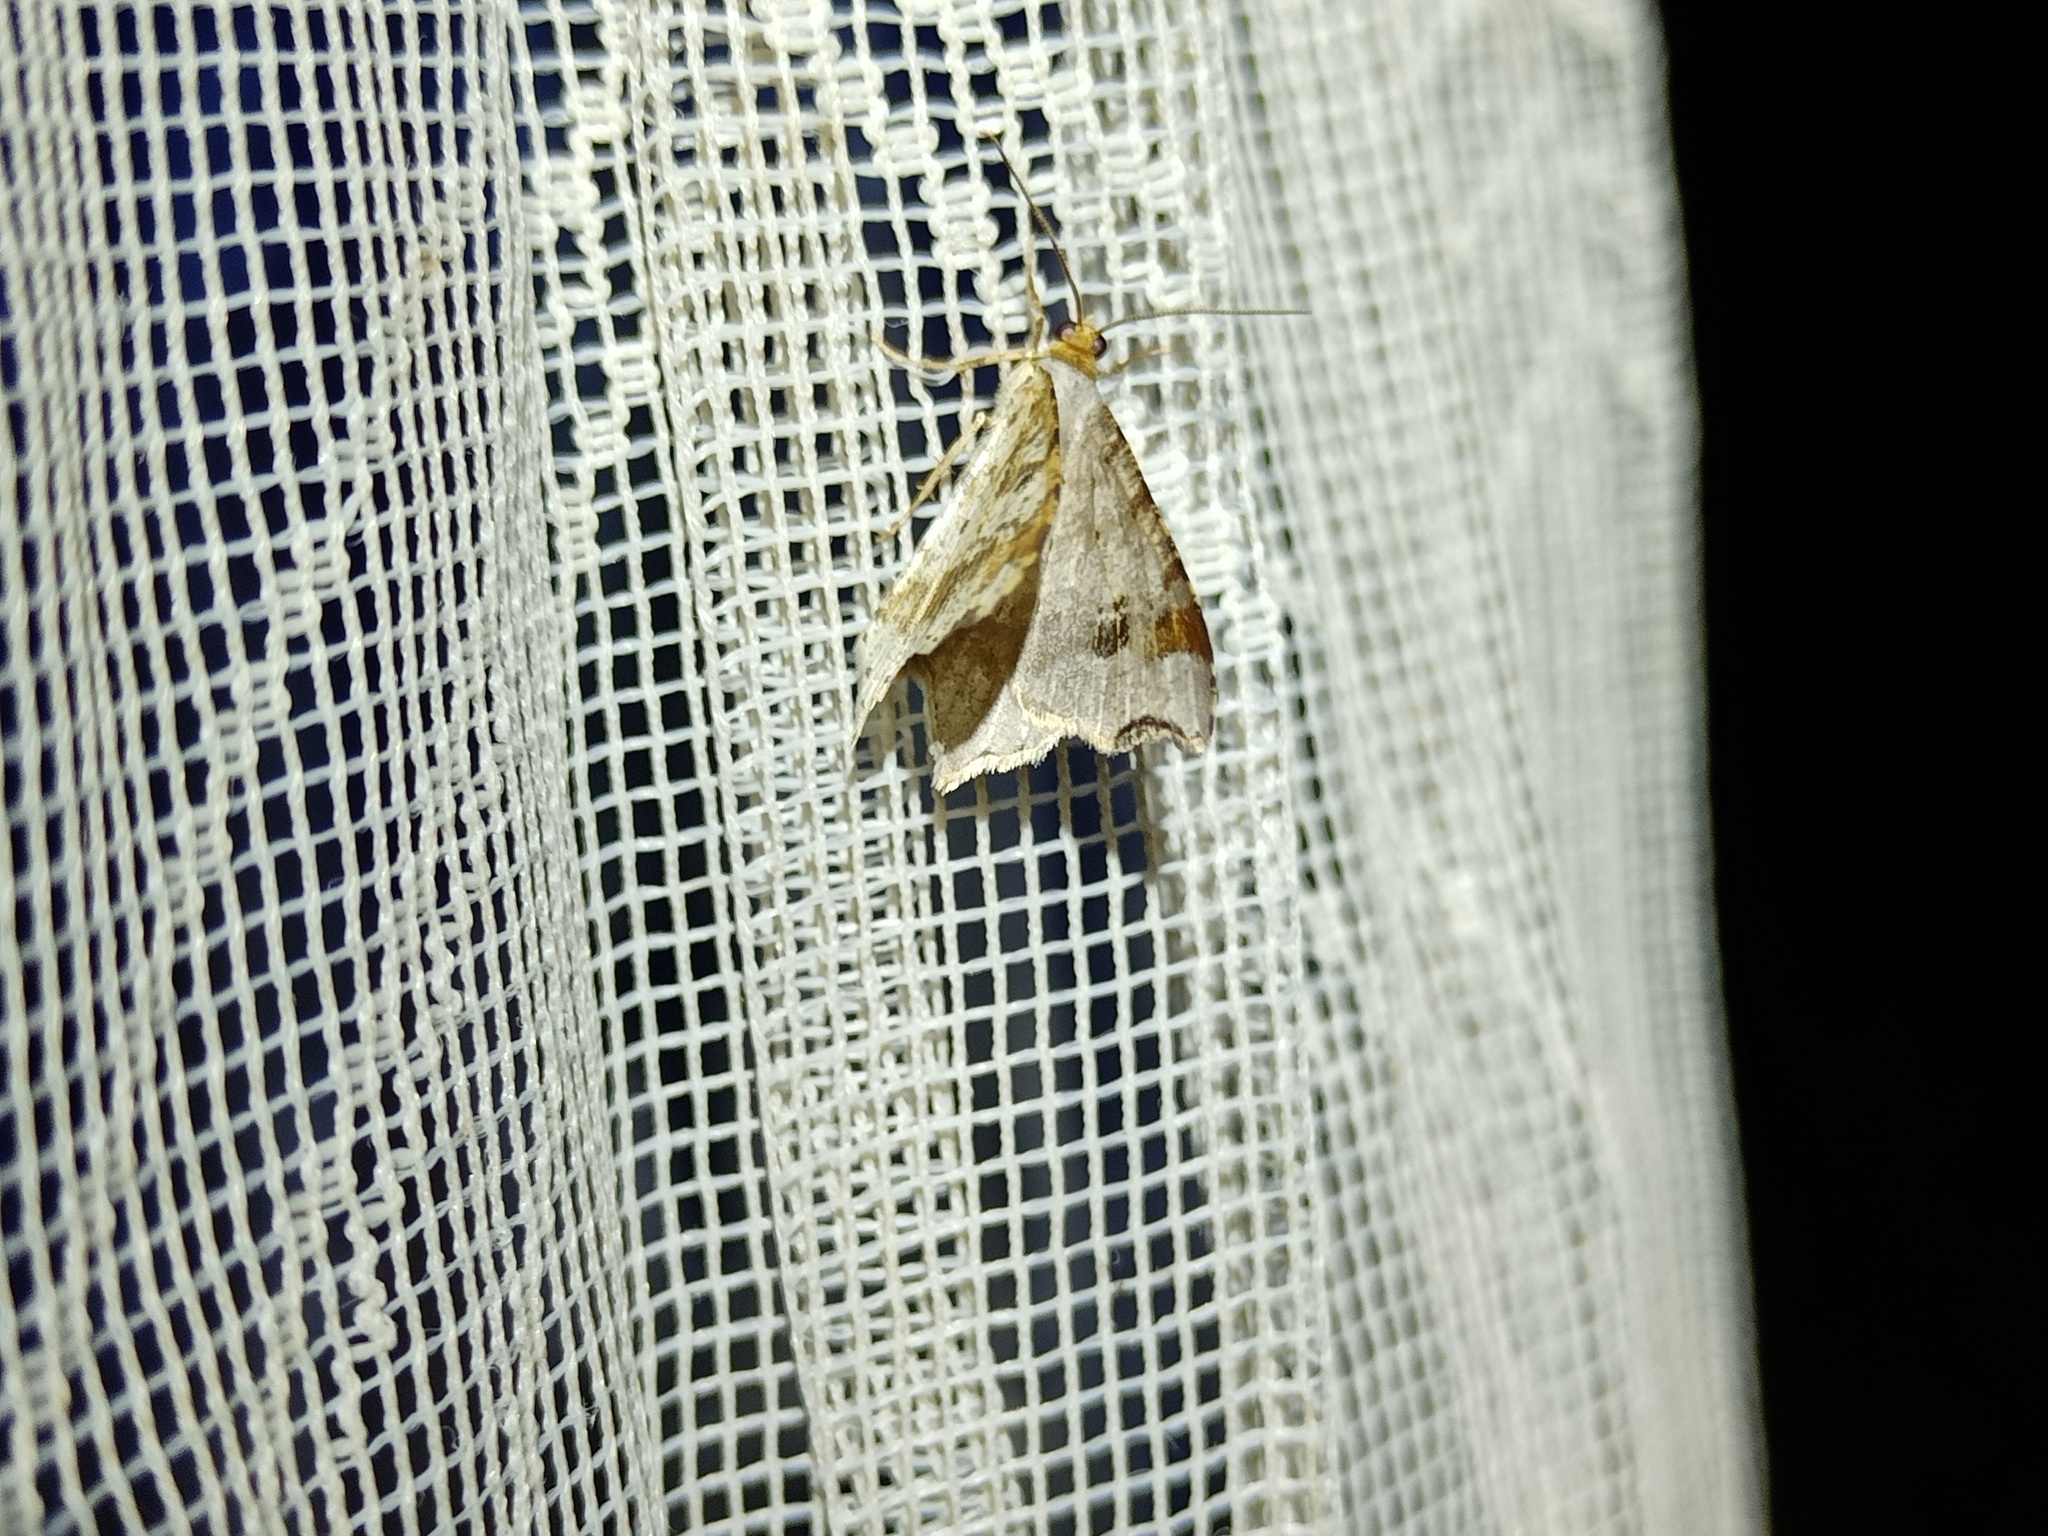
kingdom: Animalia
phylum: Arthropoda
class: Insecta
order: Lepidoptera
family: Geometridae
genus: Macaria
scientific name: Macaria alternata
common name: Sharp-angled peacock
